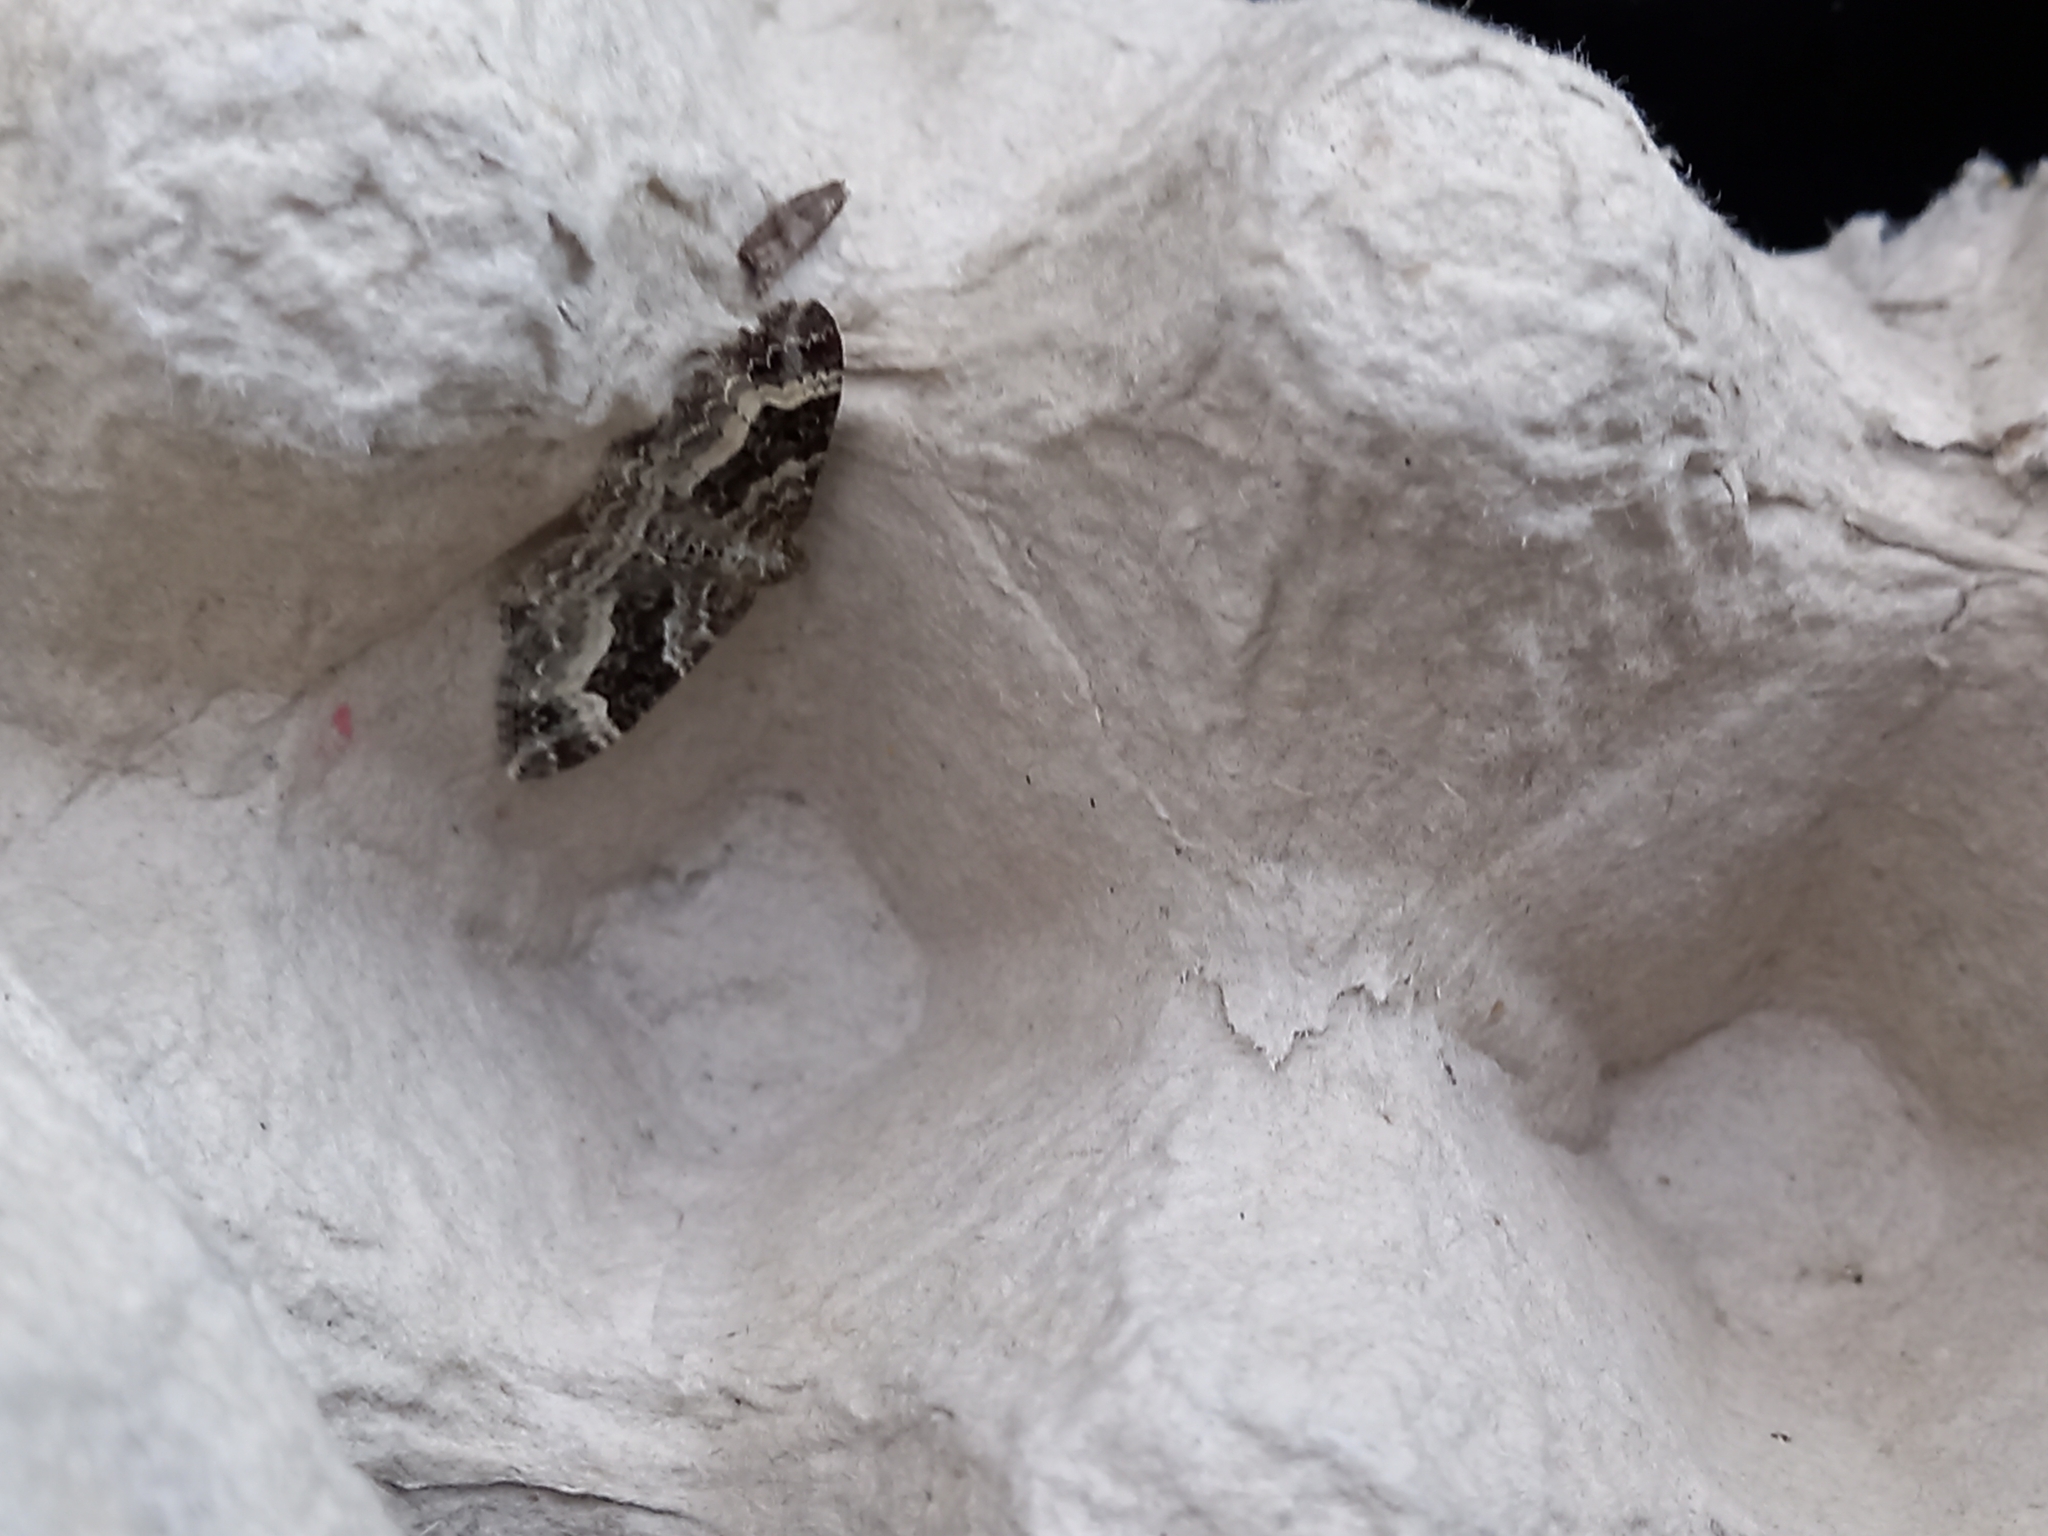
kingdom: Animalia
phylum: Arthropoda
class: Insecta
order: Lepidoptera
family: Geometridae
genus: Epirrhoe
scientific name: Epirrhoe alternata
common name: Common carpet
